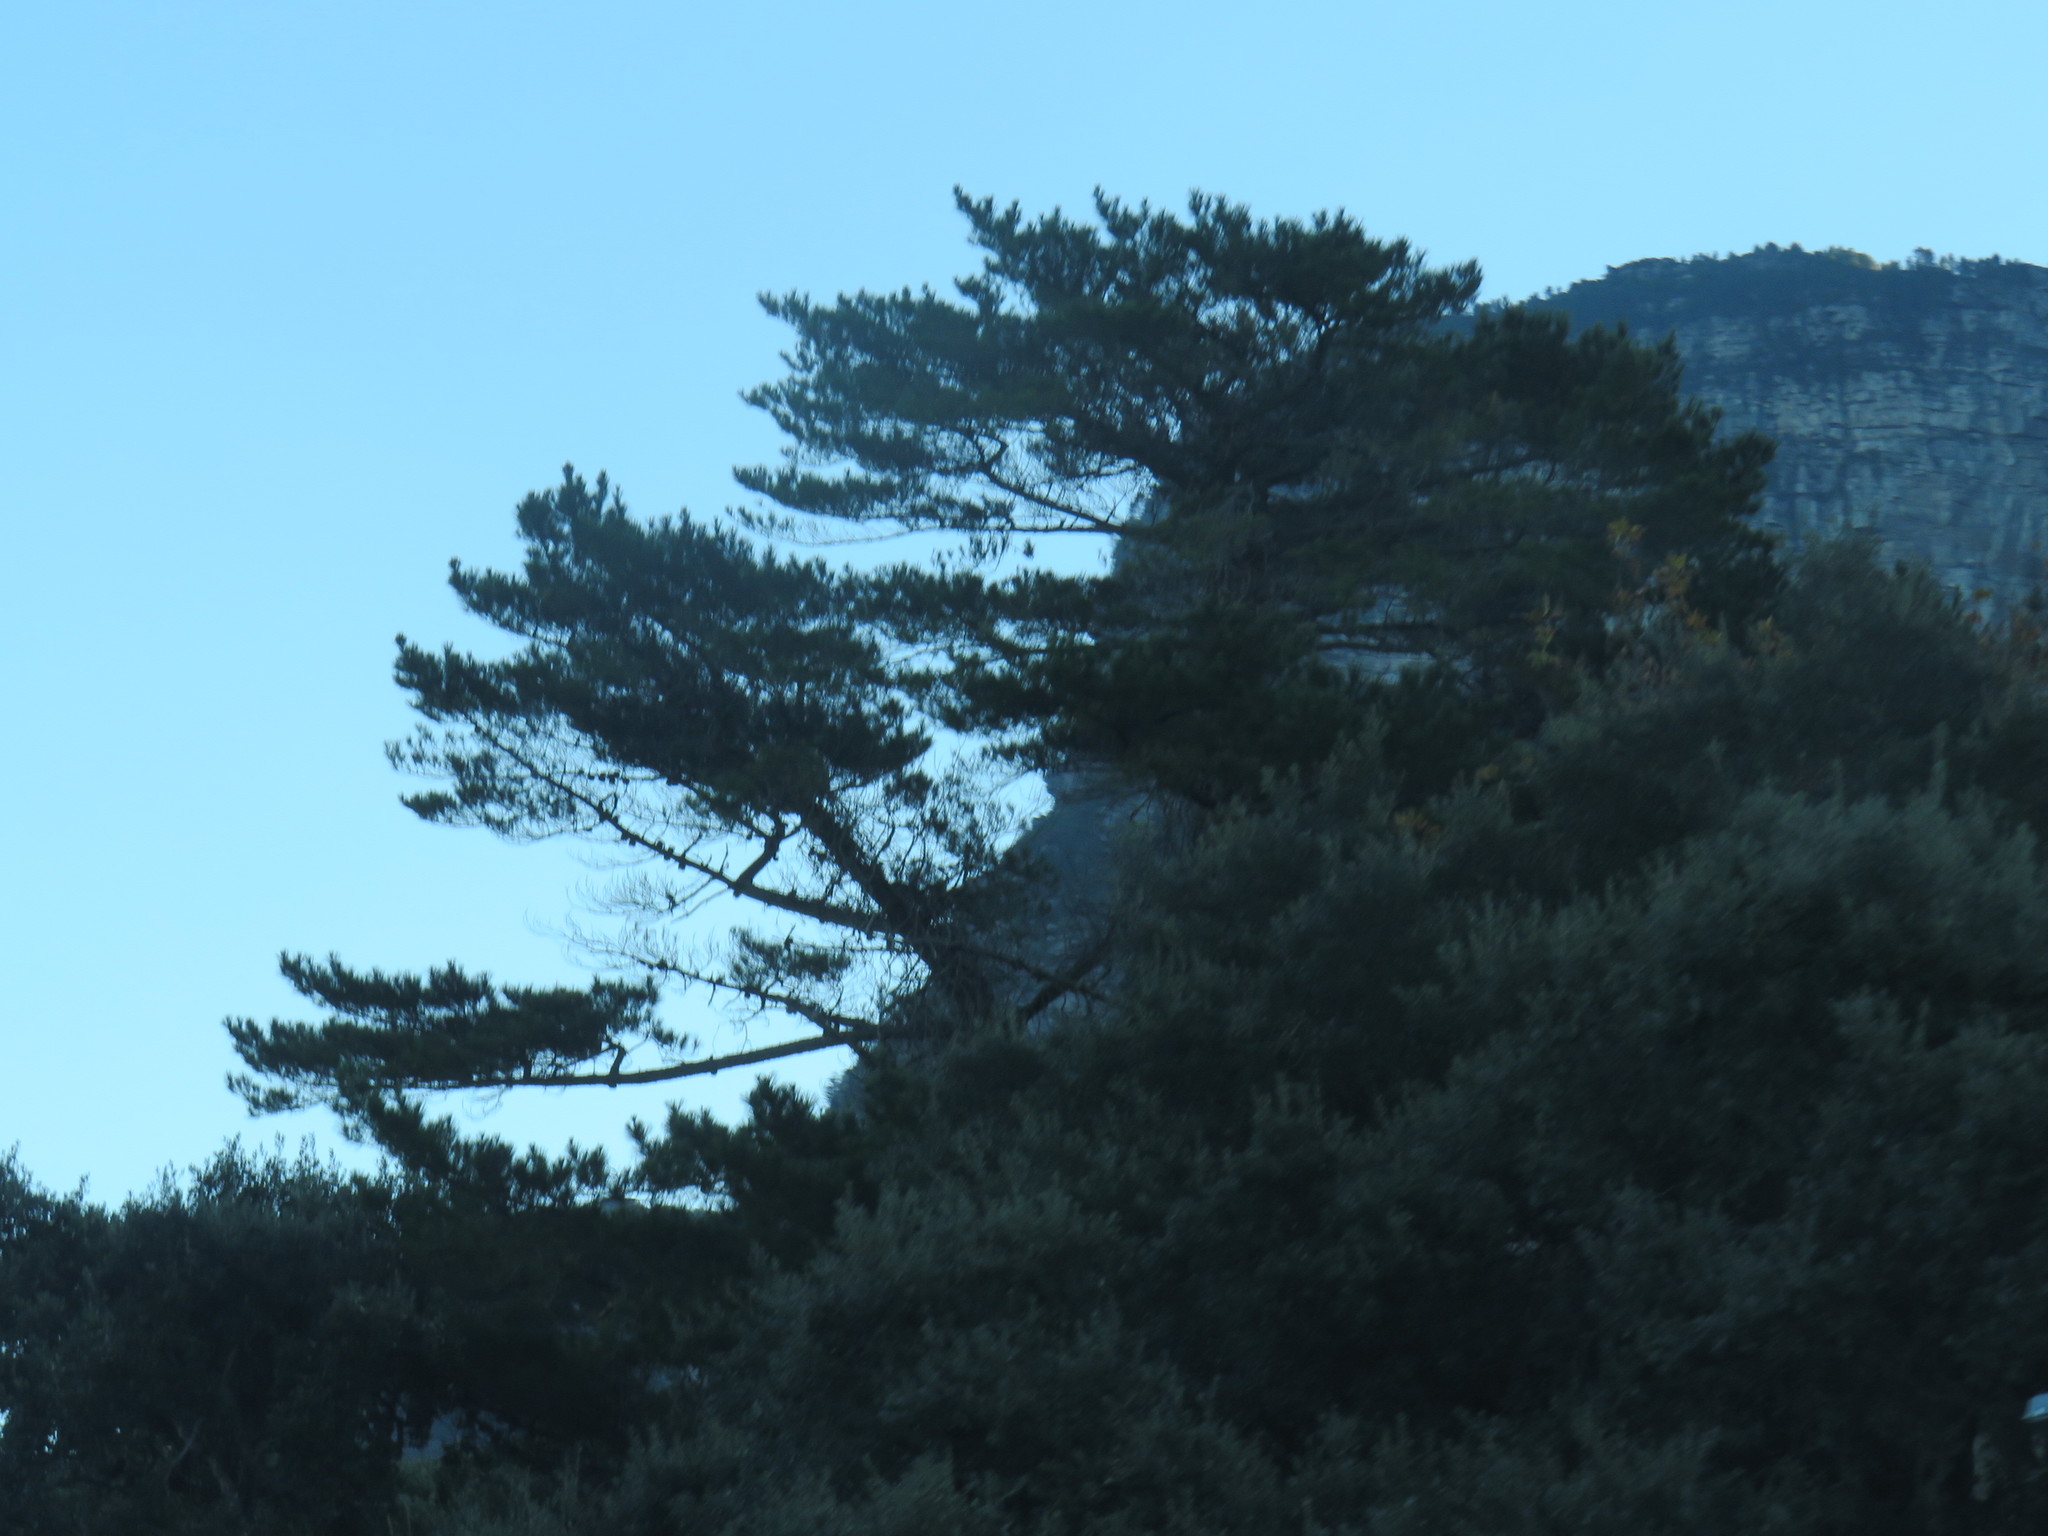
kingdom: Plantae
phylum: Tracheophyta
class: Pinopsida
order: Pinales
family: Pinaceae
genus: Pinus
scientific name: Pinus radiata
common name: Monterey pine
